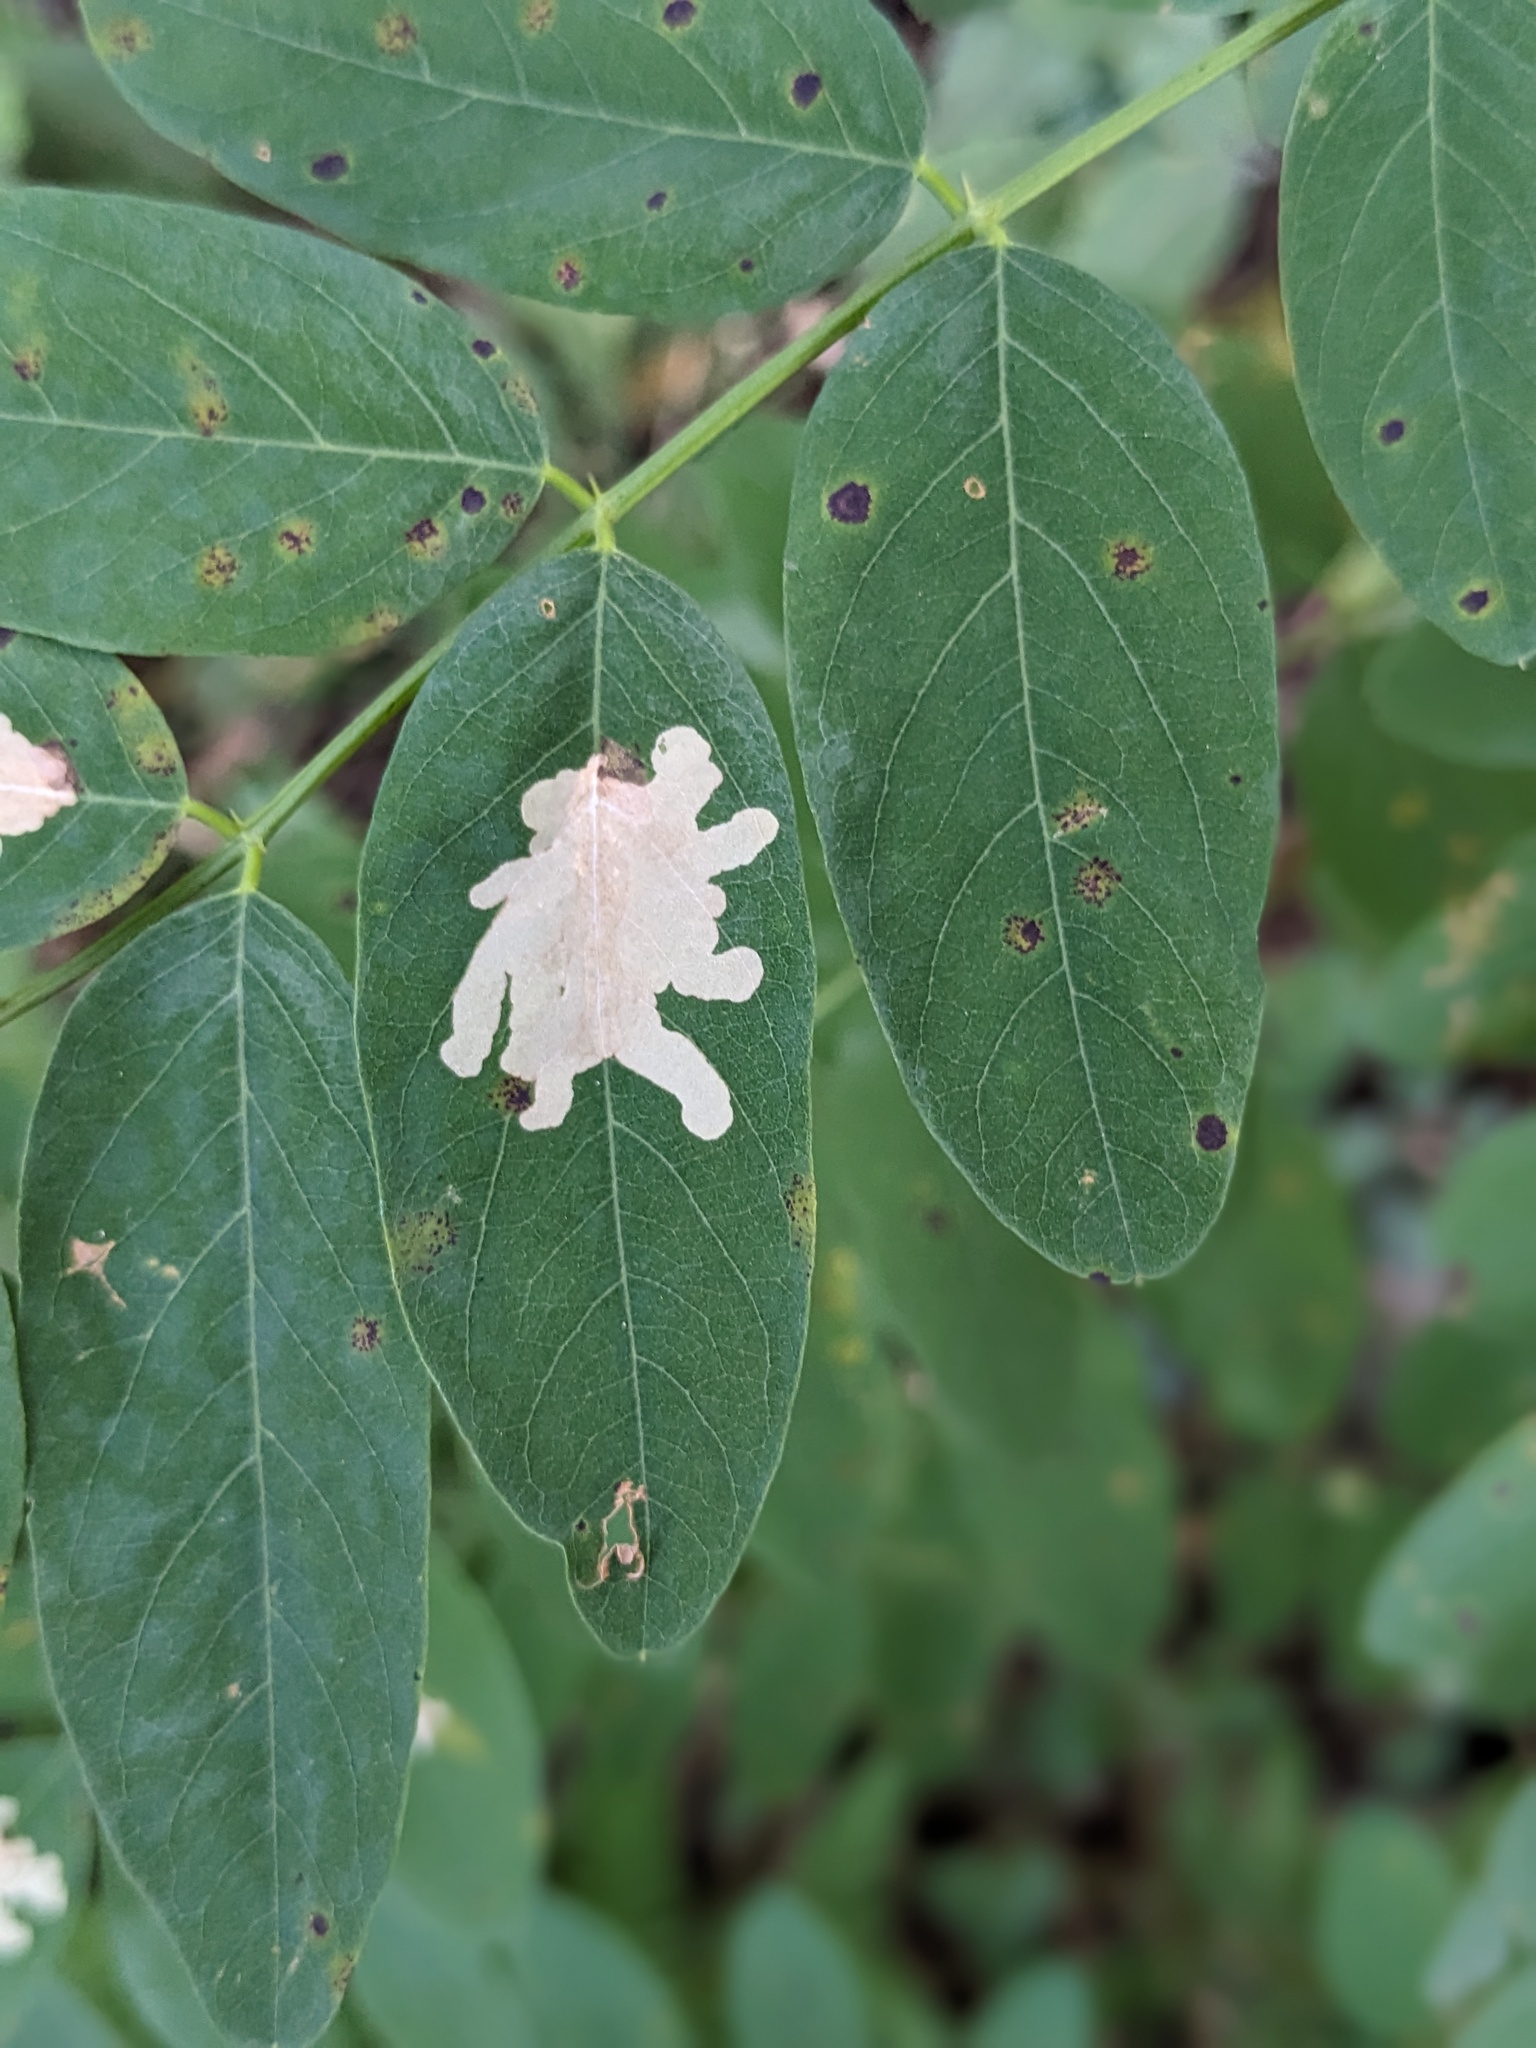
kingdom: Animalia
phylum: Arthropoda
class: Insecta
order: Lepidoptera
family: Gracillariidae
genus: Parectopa
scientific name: Parectopa robiniella
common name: Locust digitate leafminer
